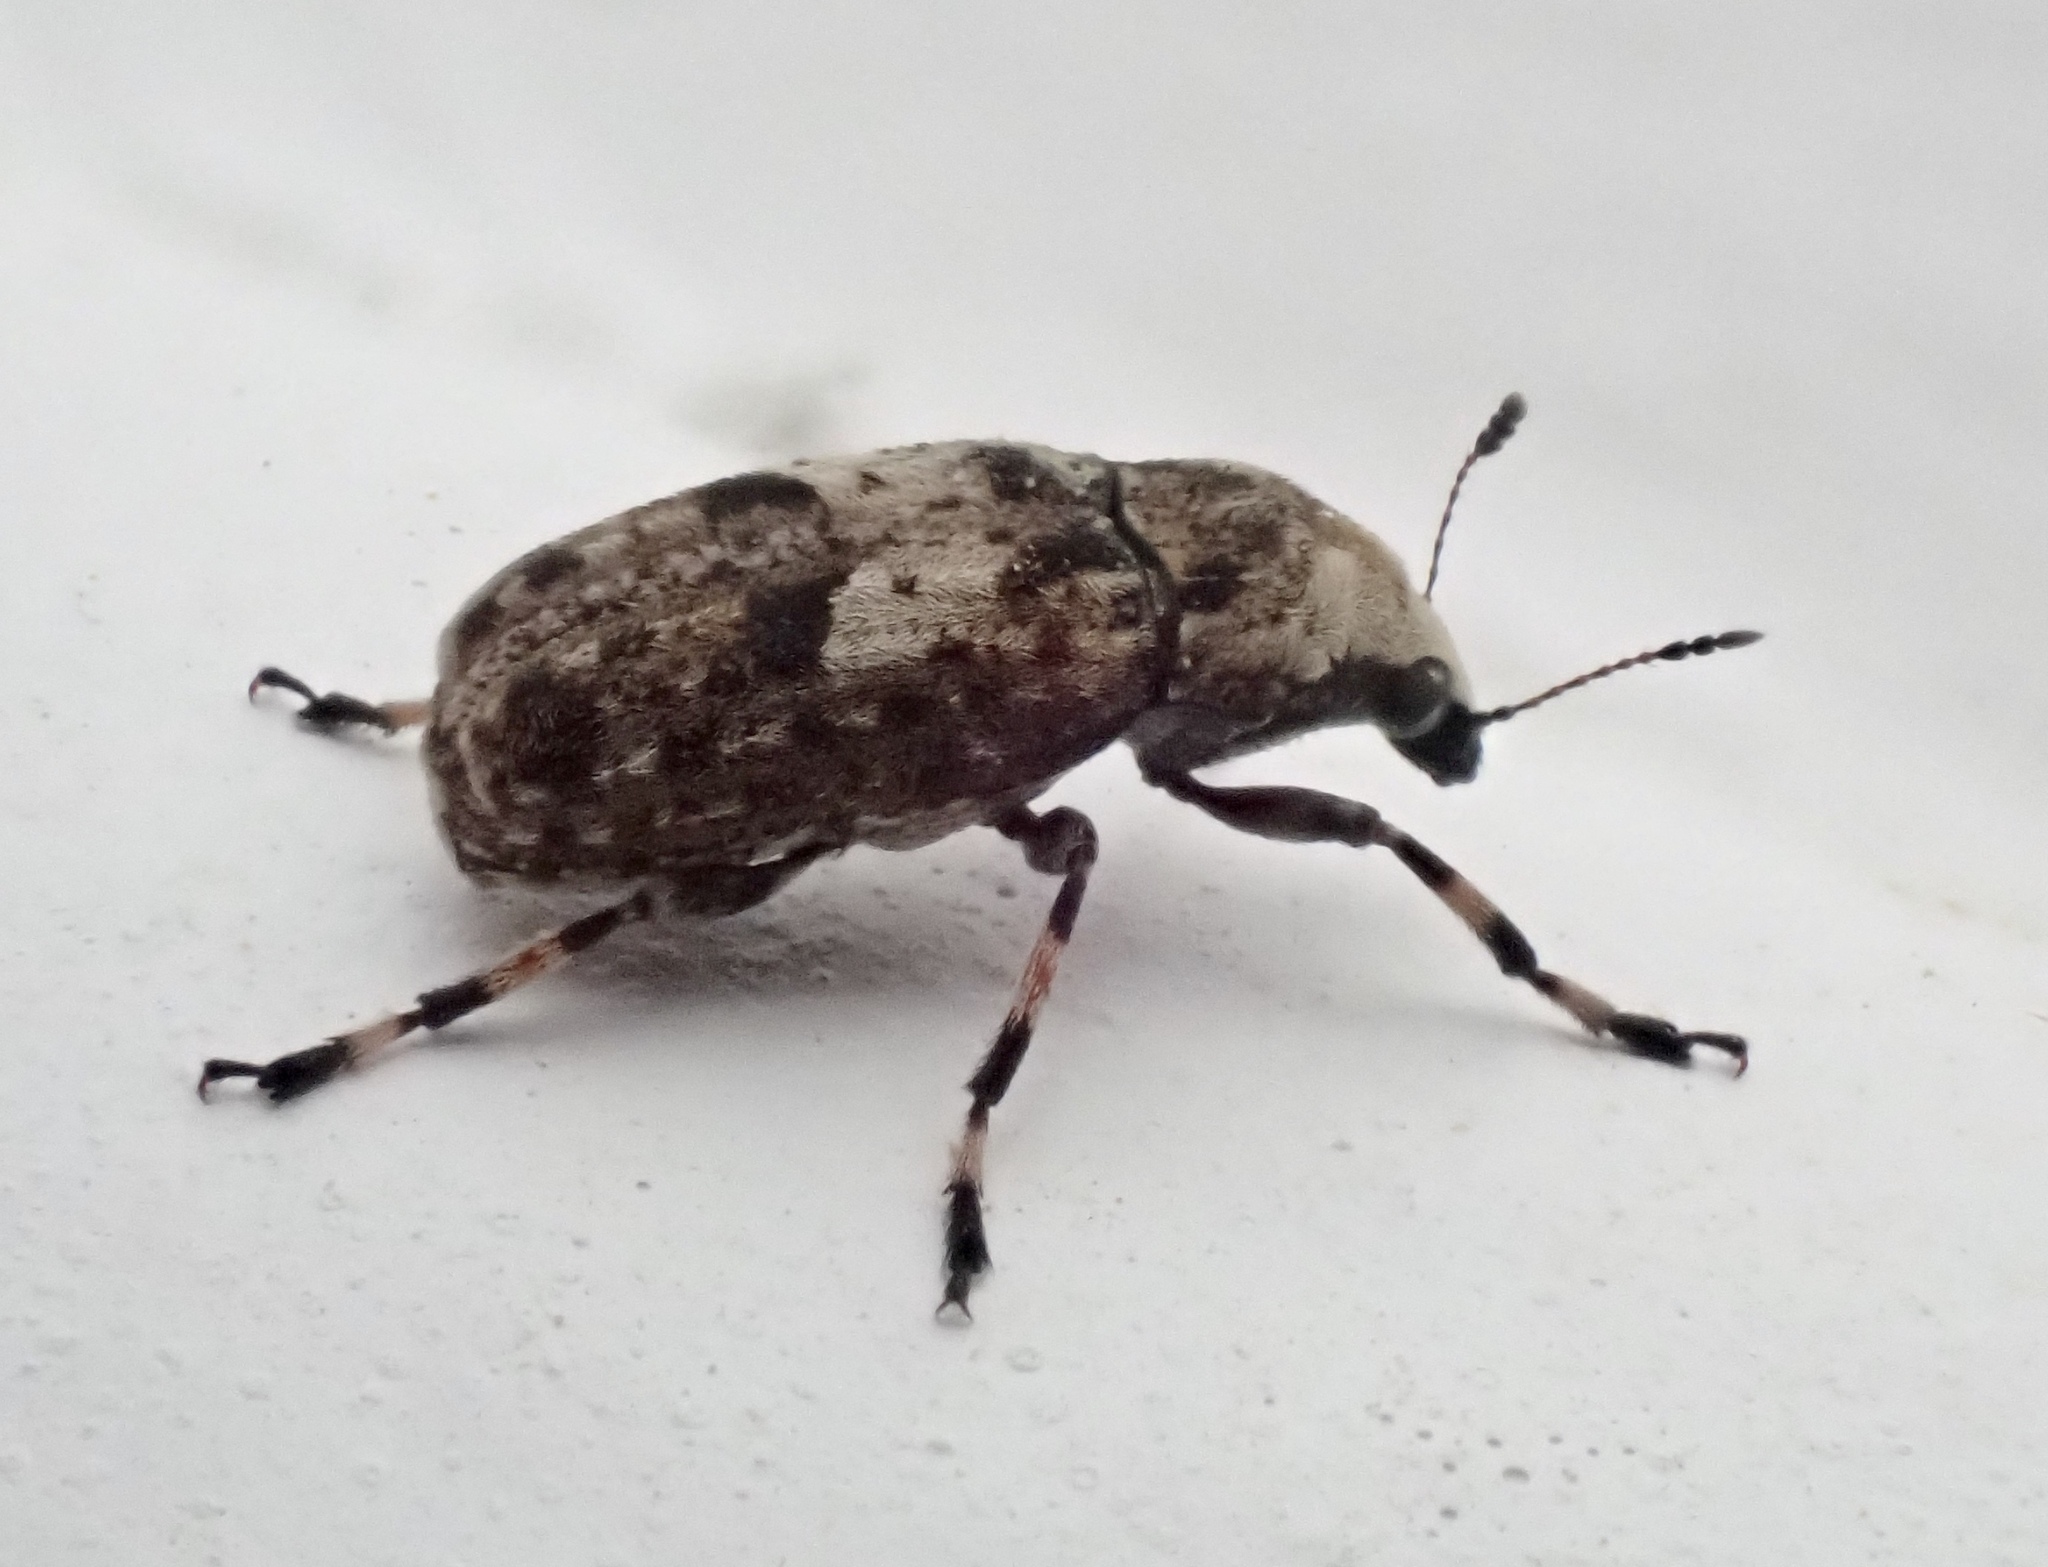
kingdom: Animalia
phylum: Arthropoda
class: Insecta
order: Coleoptera
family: Anthribidae
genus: Euparius
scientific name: Euparius marmoreus
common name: Marbled fungus weevil
